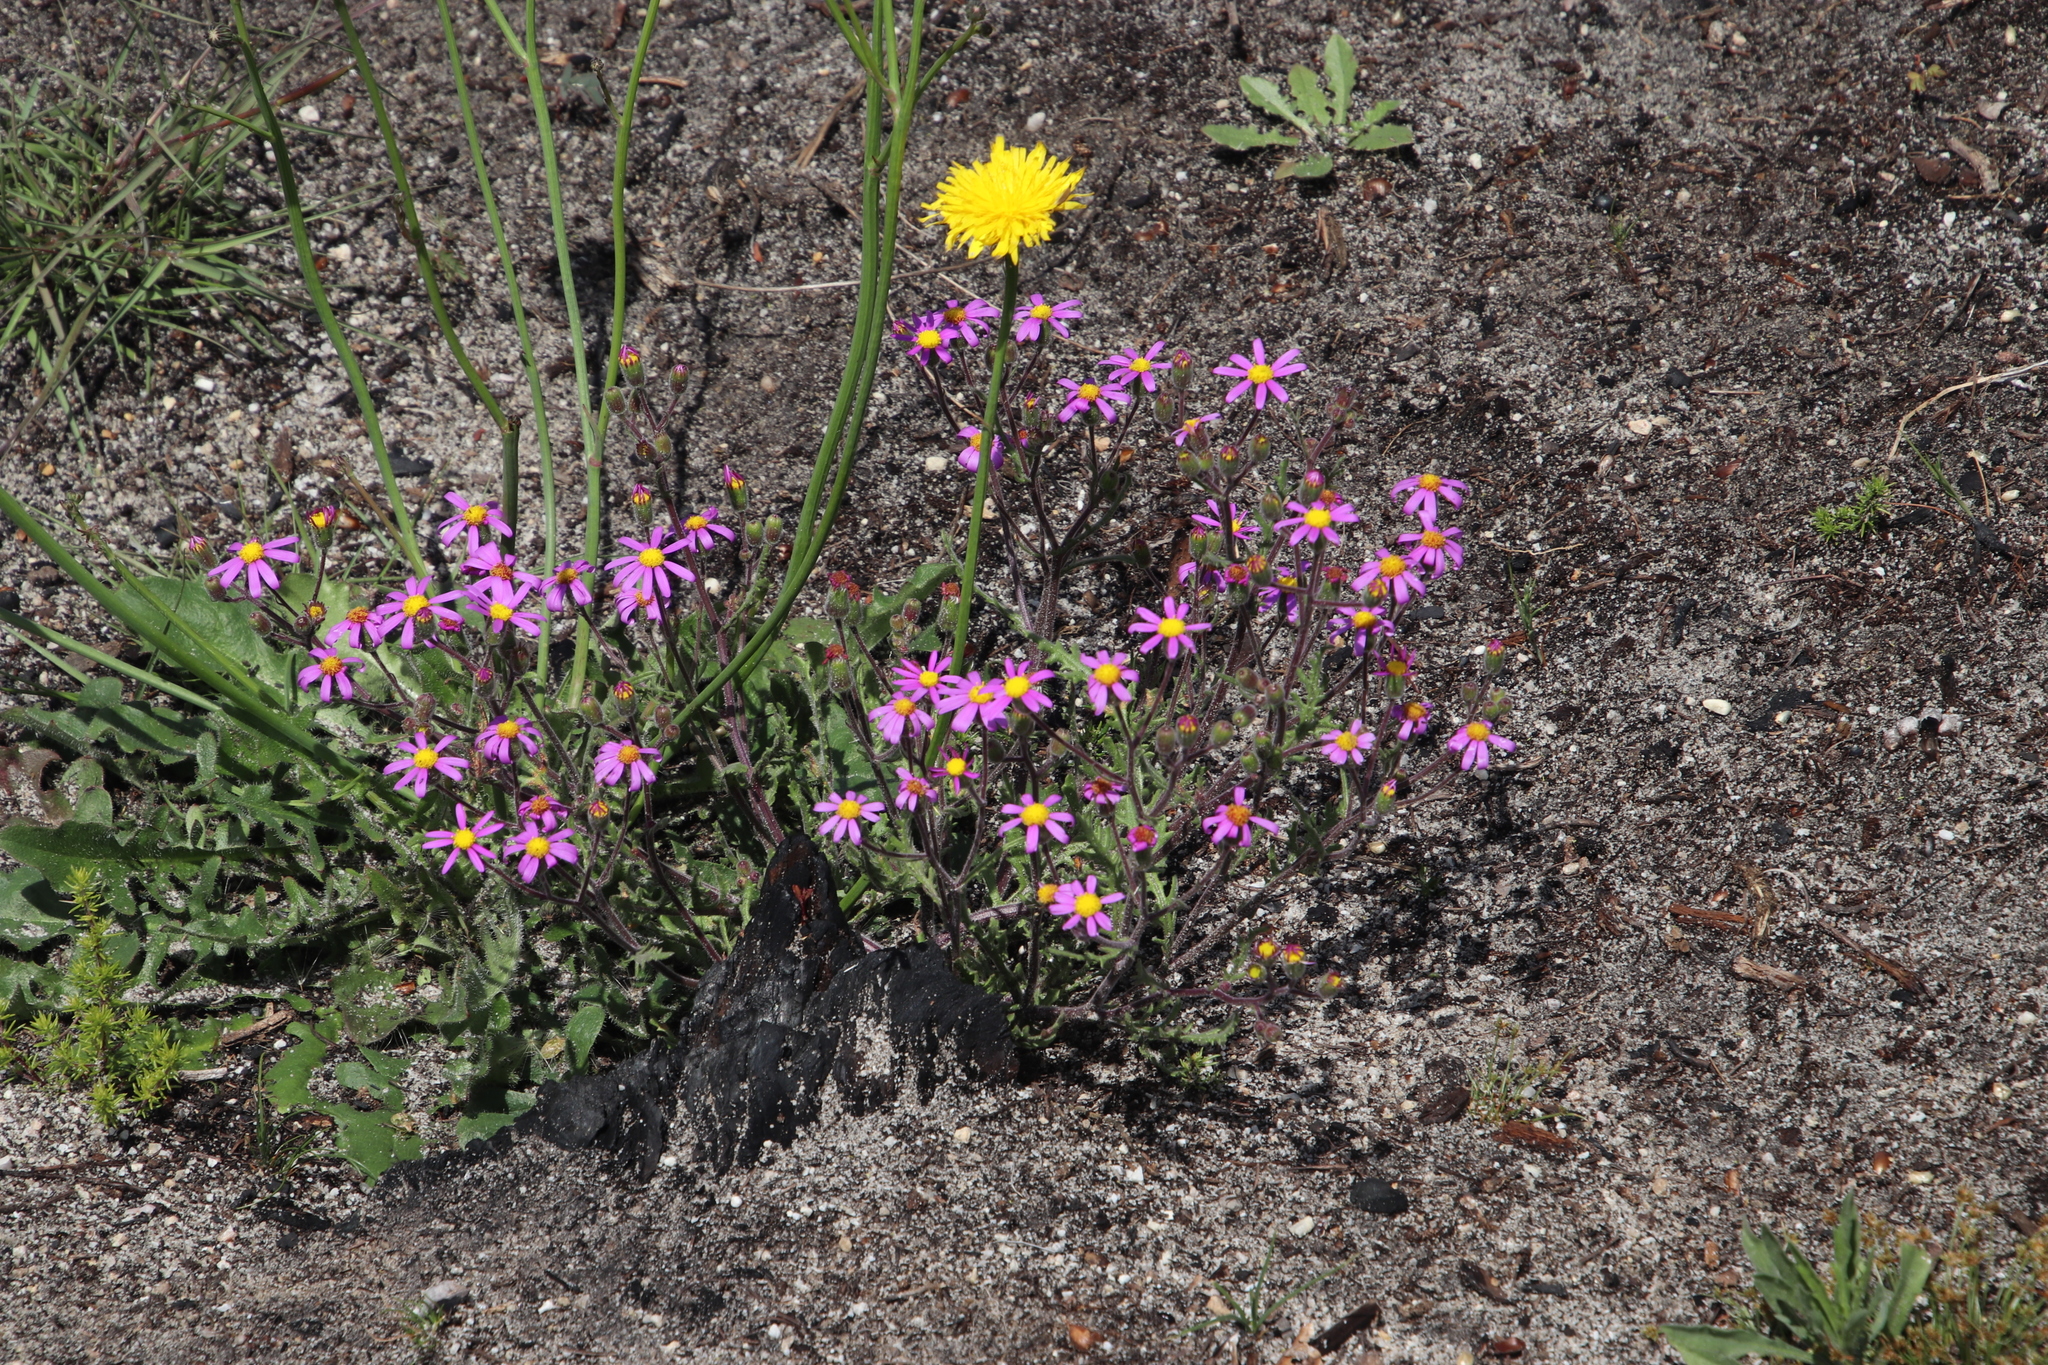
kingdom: Plantae
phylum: Tracheophyta
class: Magnoliopsida
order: Asterales
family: Asteraceae
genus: Senecio
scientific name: Senecio arenarius
